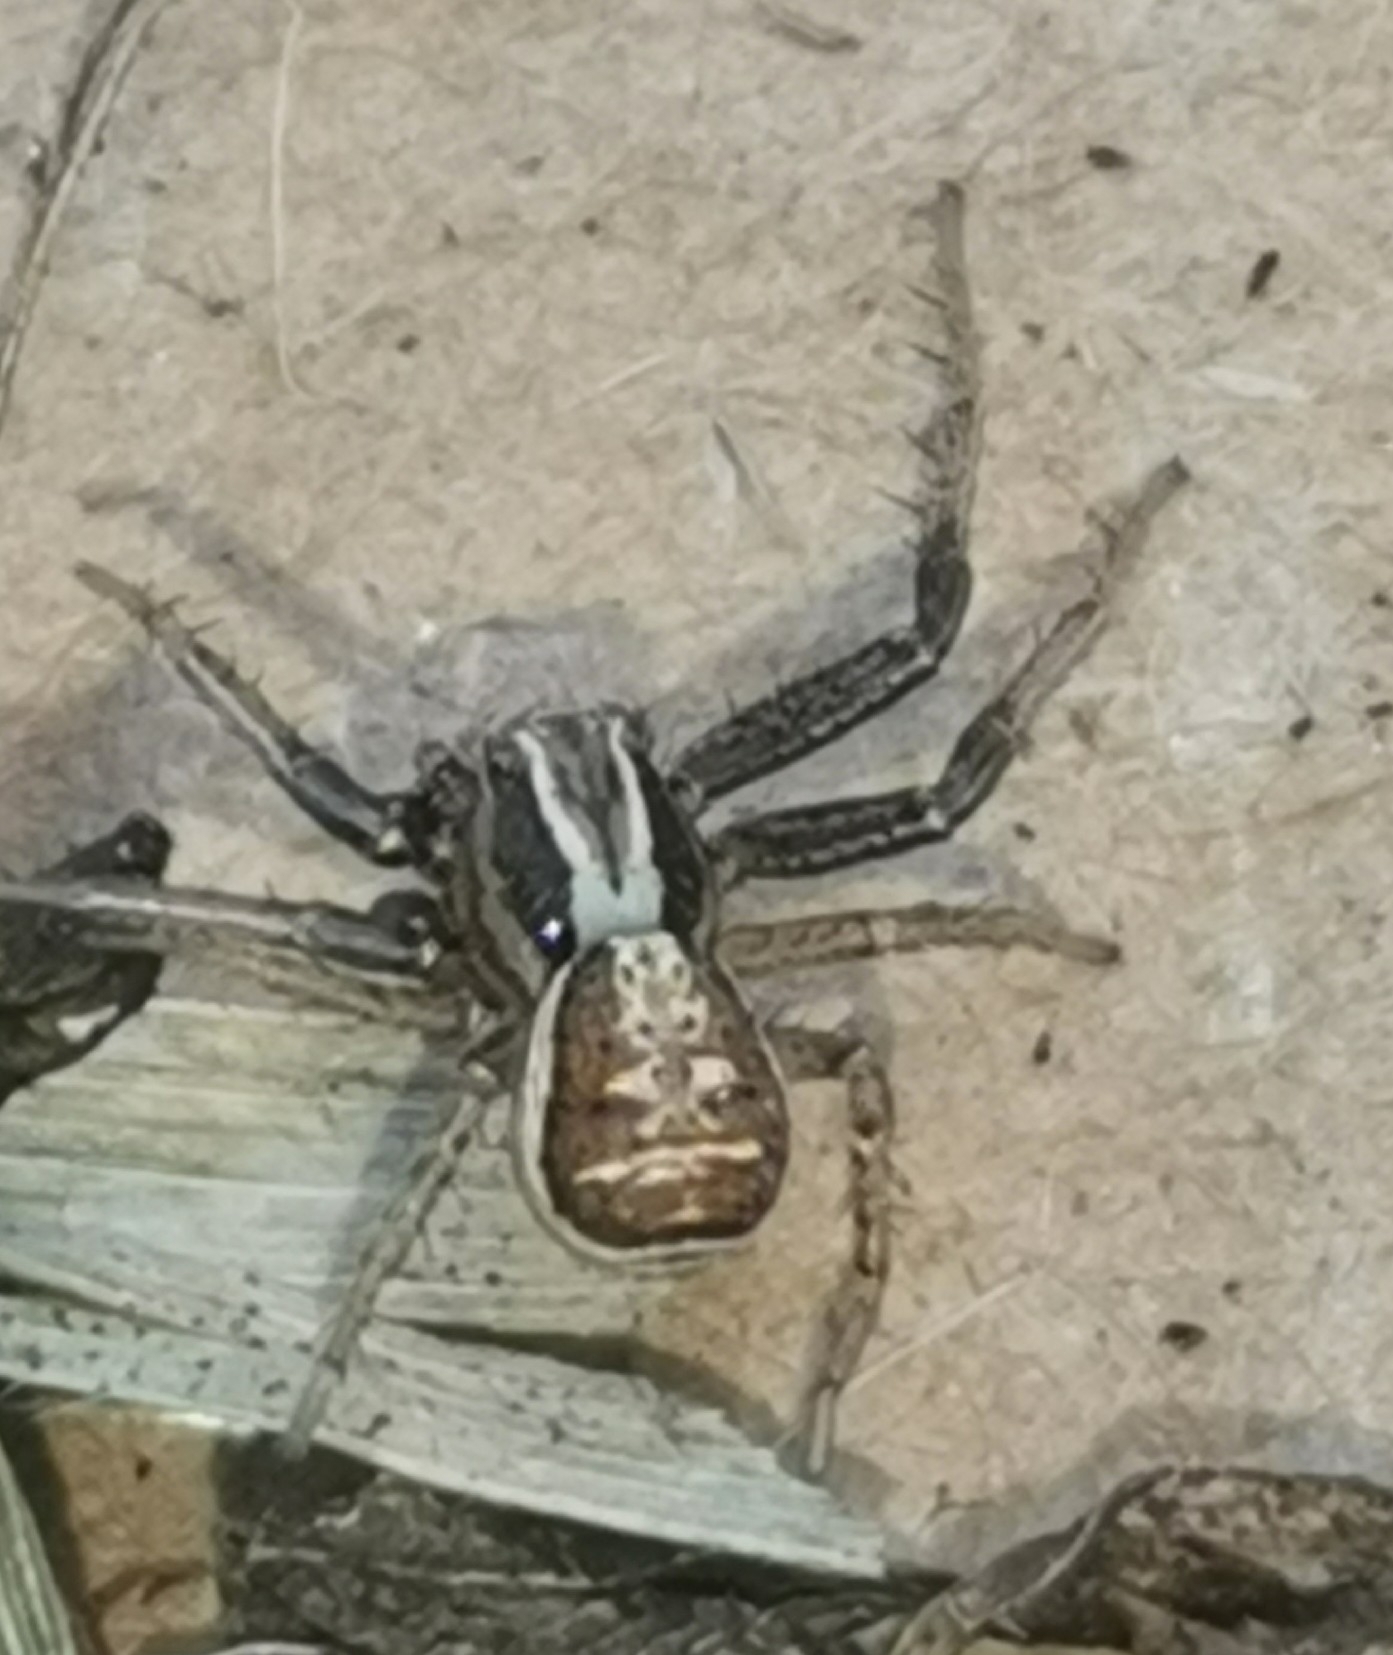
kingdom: Animalia
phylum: Arthropoda
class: Arachnida
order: Araneae
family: Thomisidae
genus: Xysticus
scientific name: Xysticus ulmi
